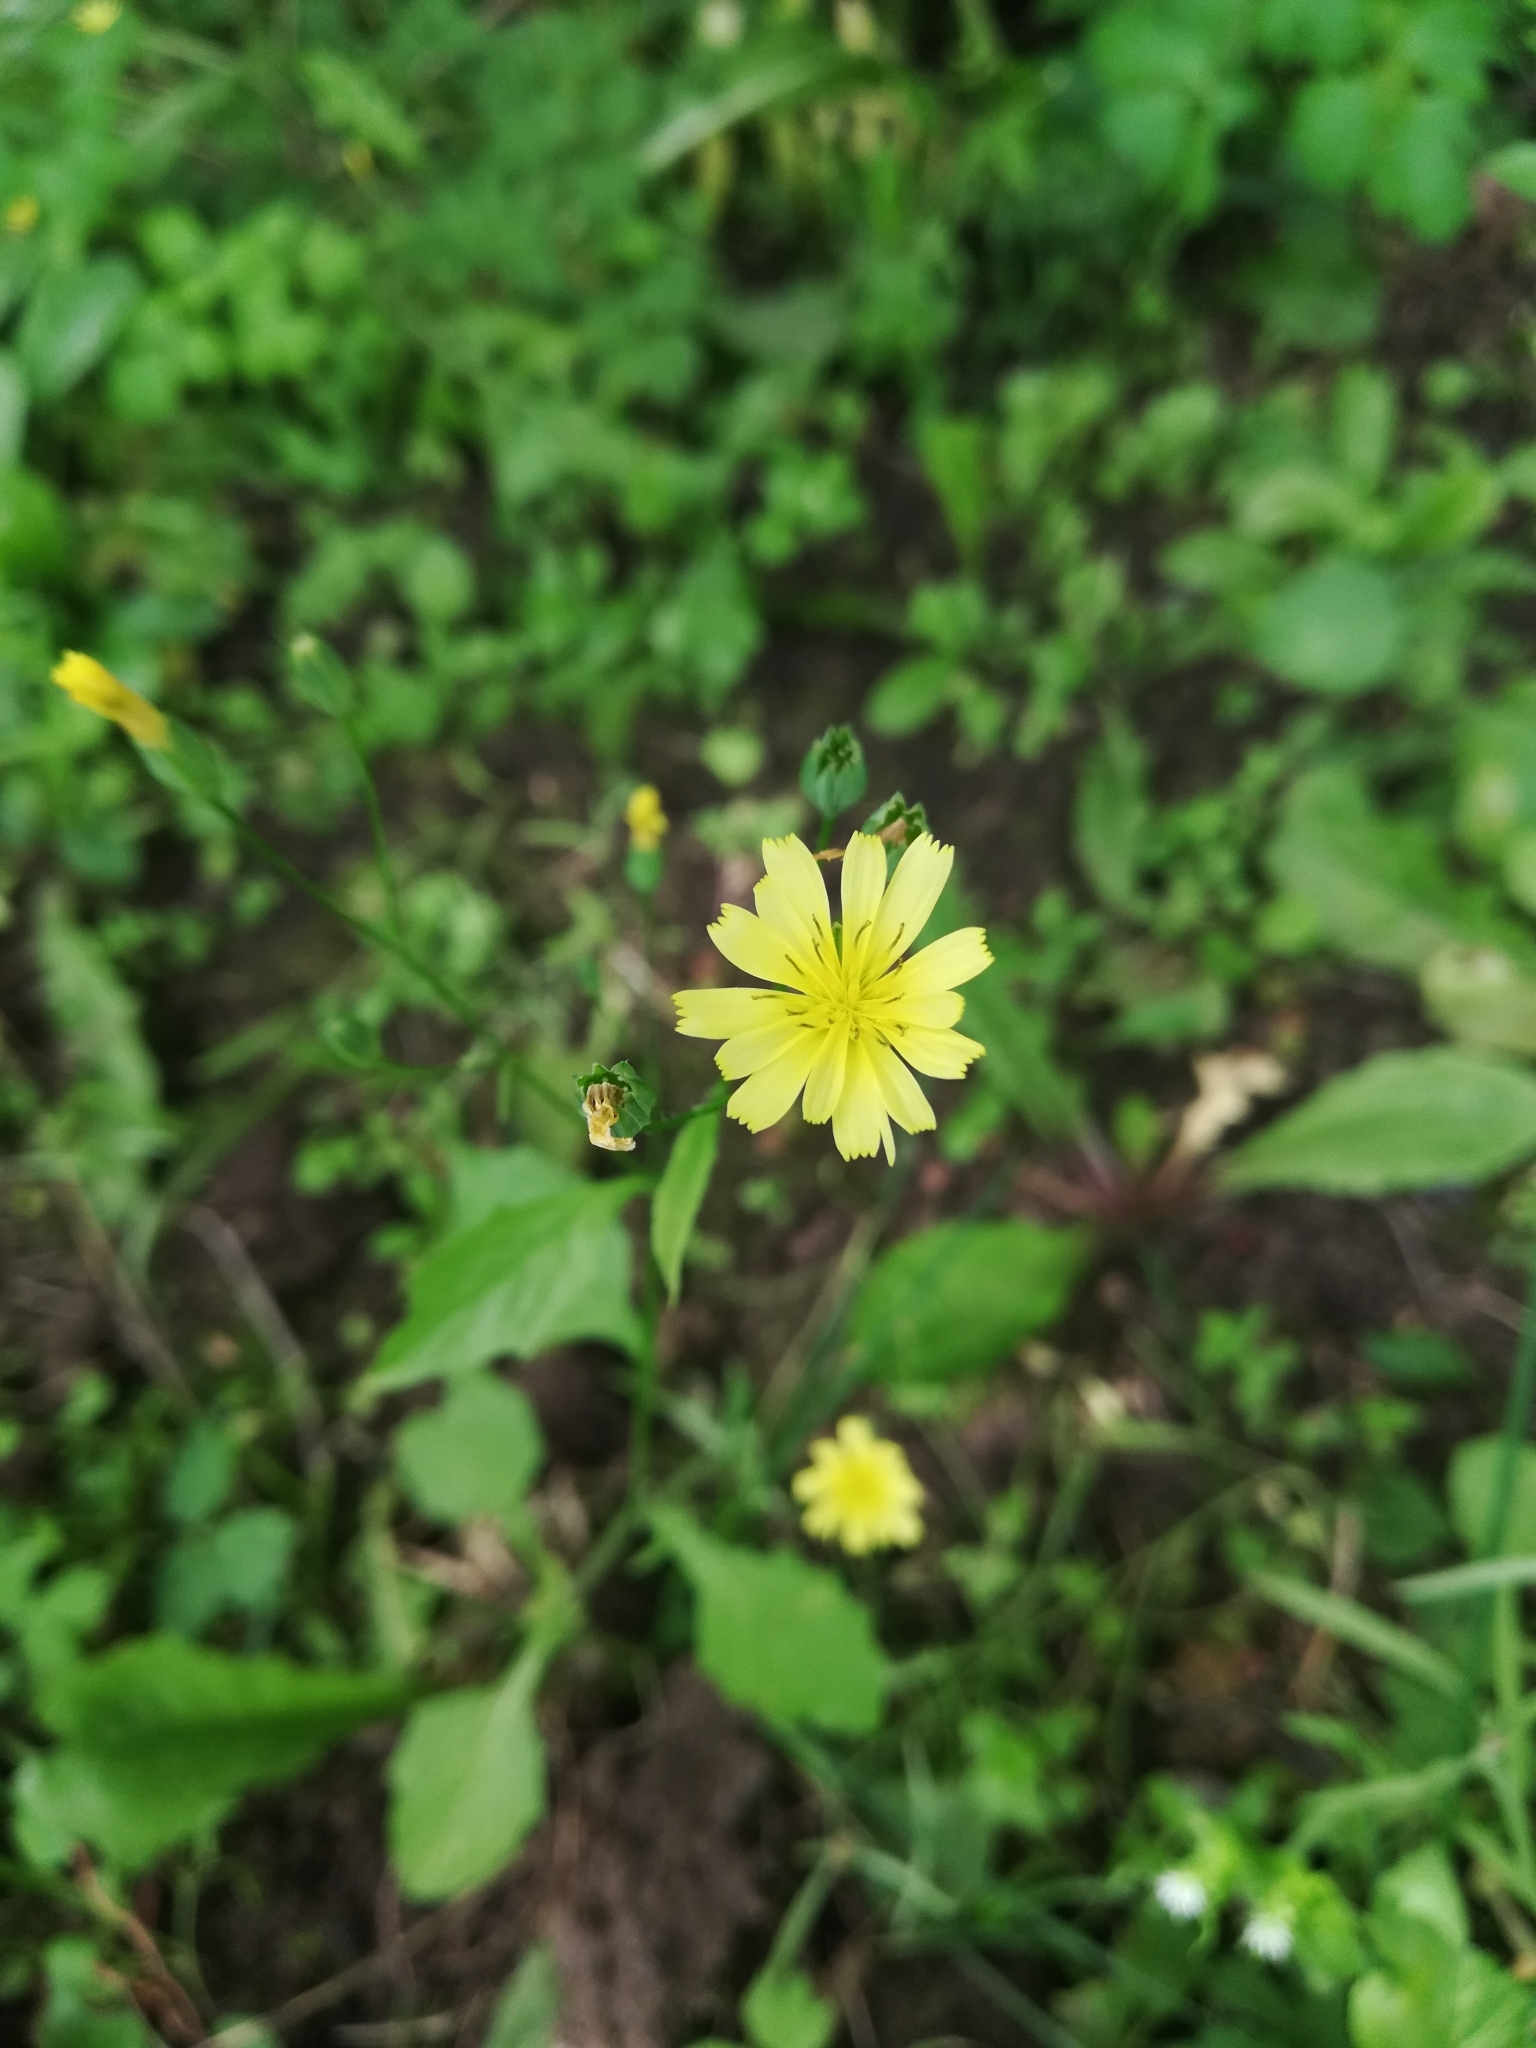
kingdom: Plantae
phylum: Tracheophyta
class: Magnoliopsida
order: Asterales
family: Asteraceae
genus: Lapsana
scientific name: Lapsana communis
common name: Nipplewort
